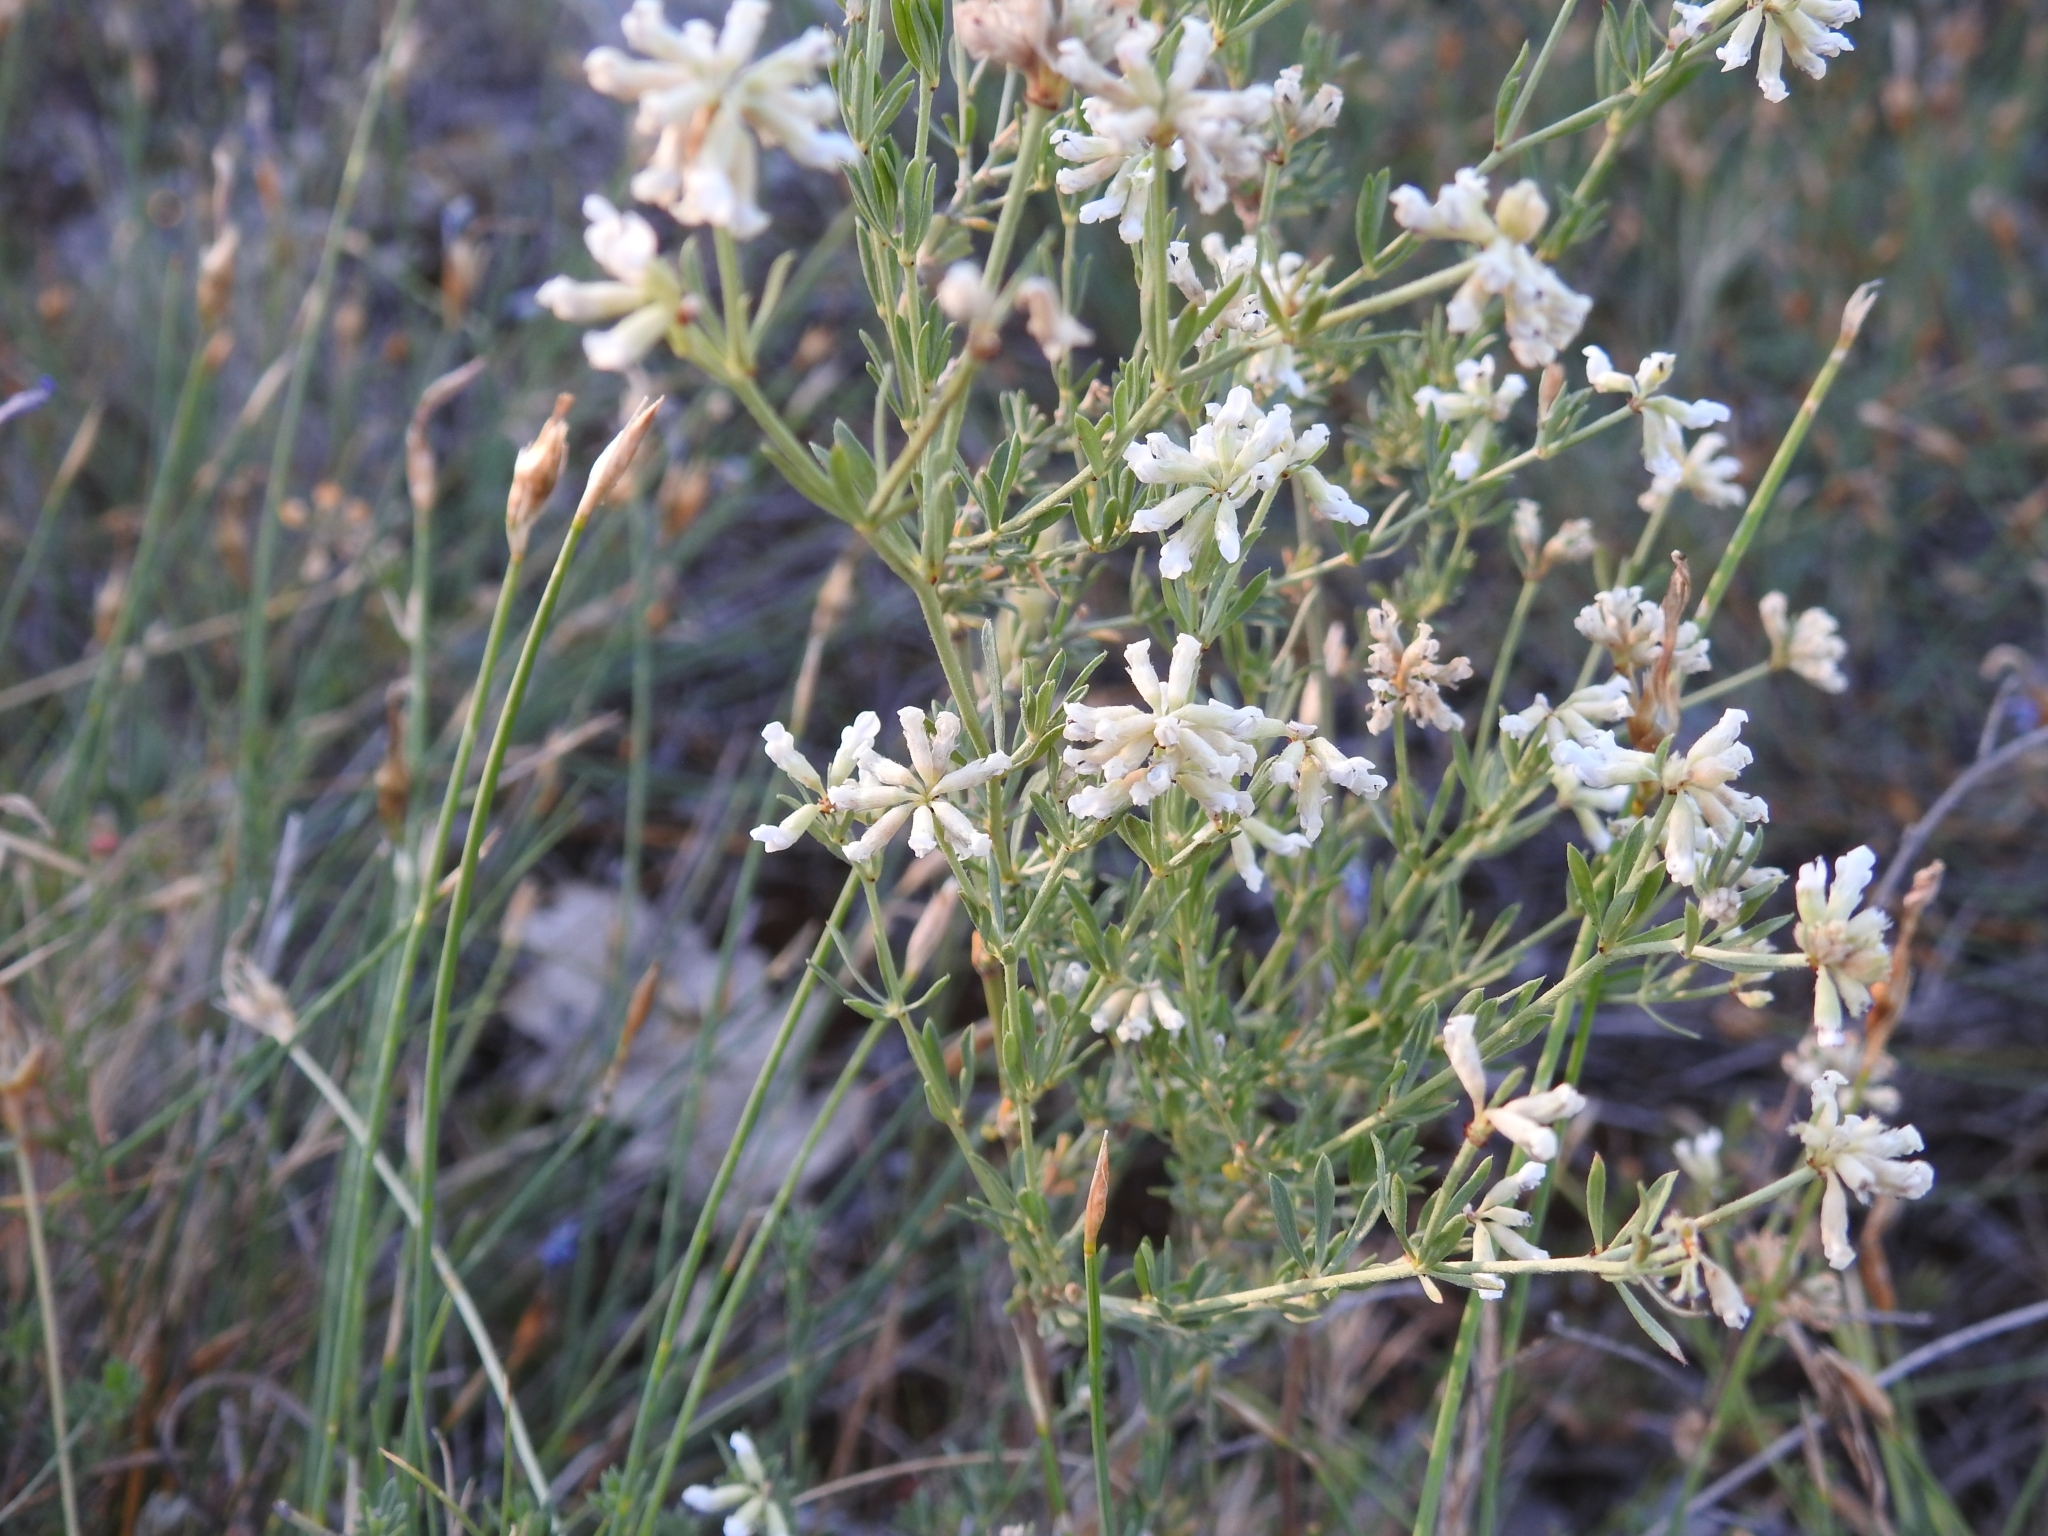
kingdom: Plantae
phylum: Tracheophyta
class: Magnoliopsida
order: Fabales
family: Fabaceae
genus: Lotus
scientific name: Lotus dorycnium
